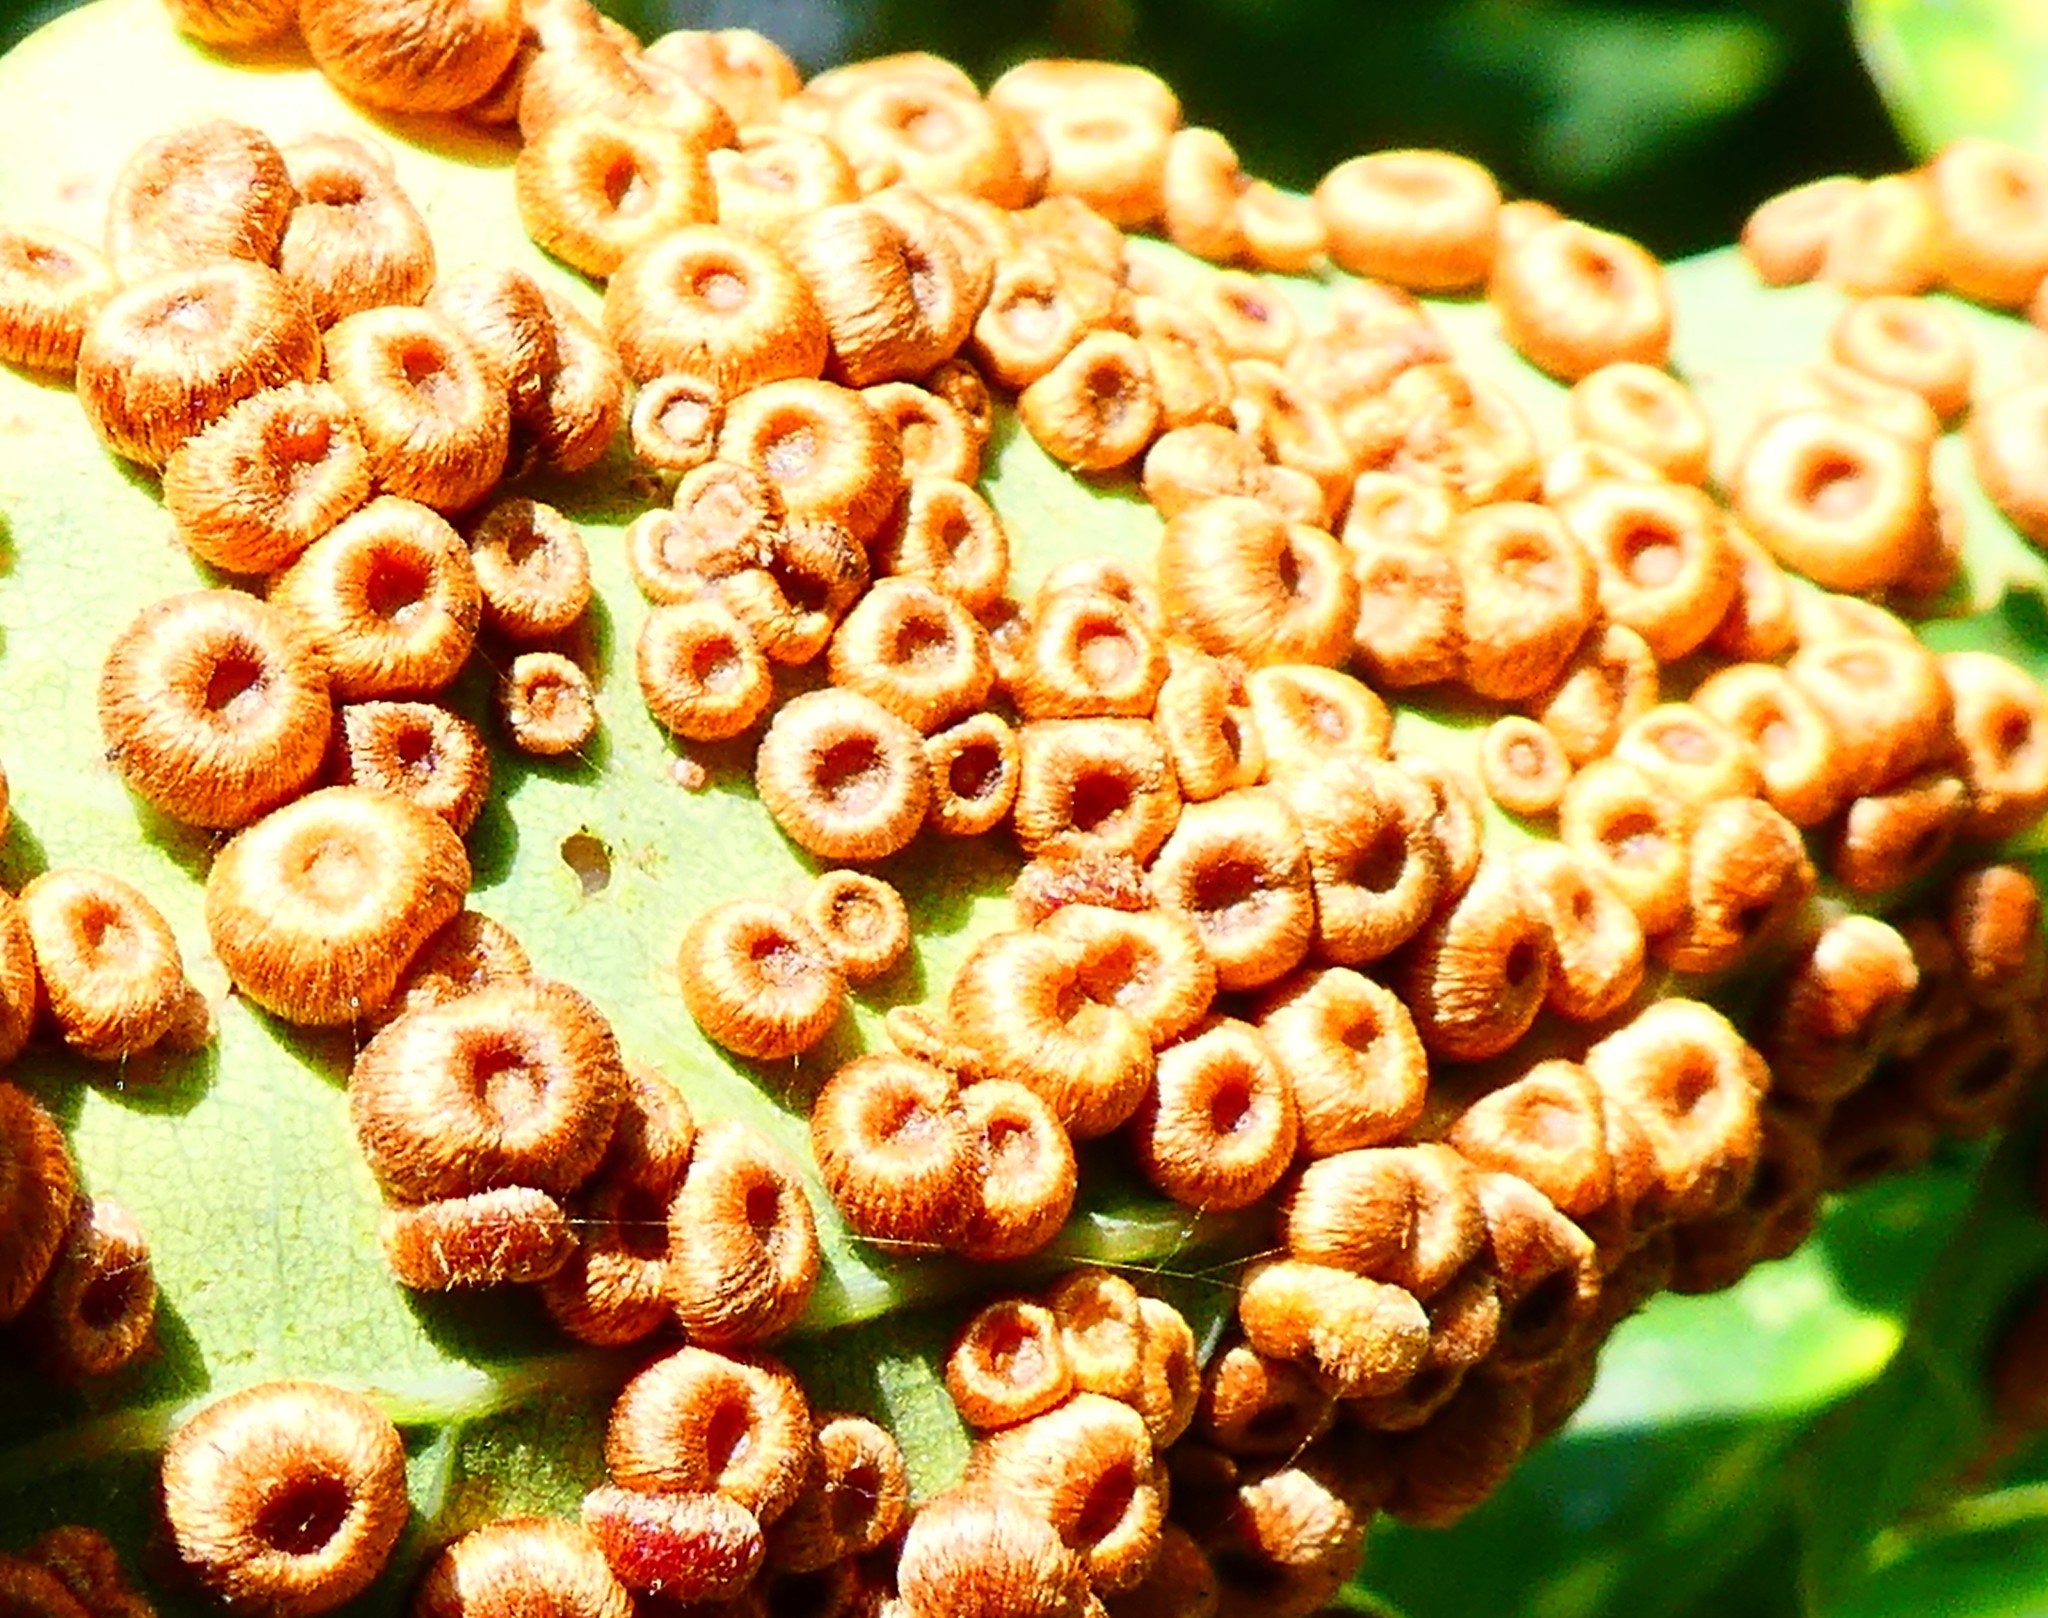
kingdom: Animalia
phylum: Arthropoda
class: Insecta
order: Hymenoptera
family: Cynipidae
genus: Neuroterus
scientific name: Neuroterus numismalis
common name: Silk-button spangle gall
